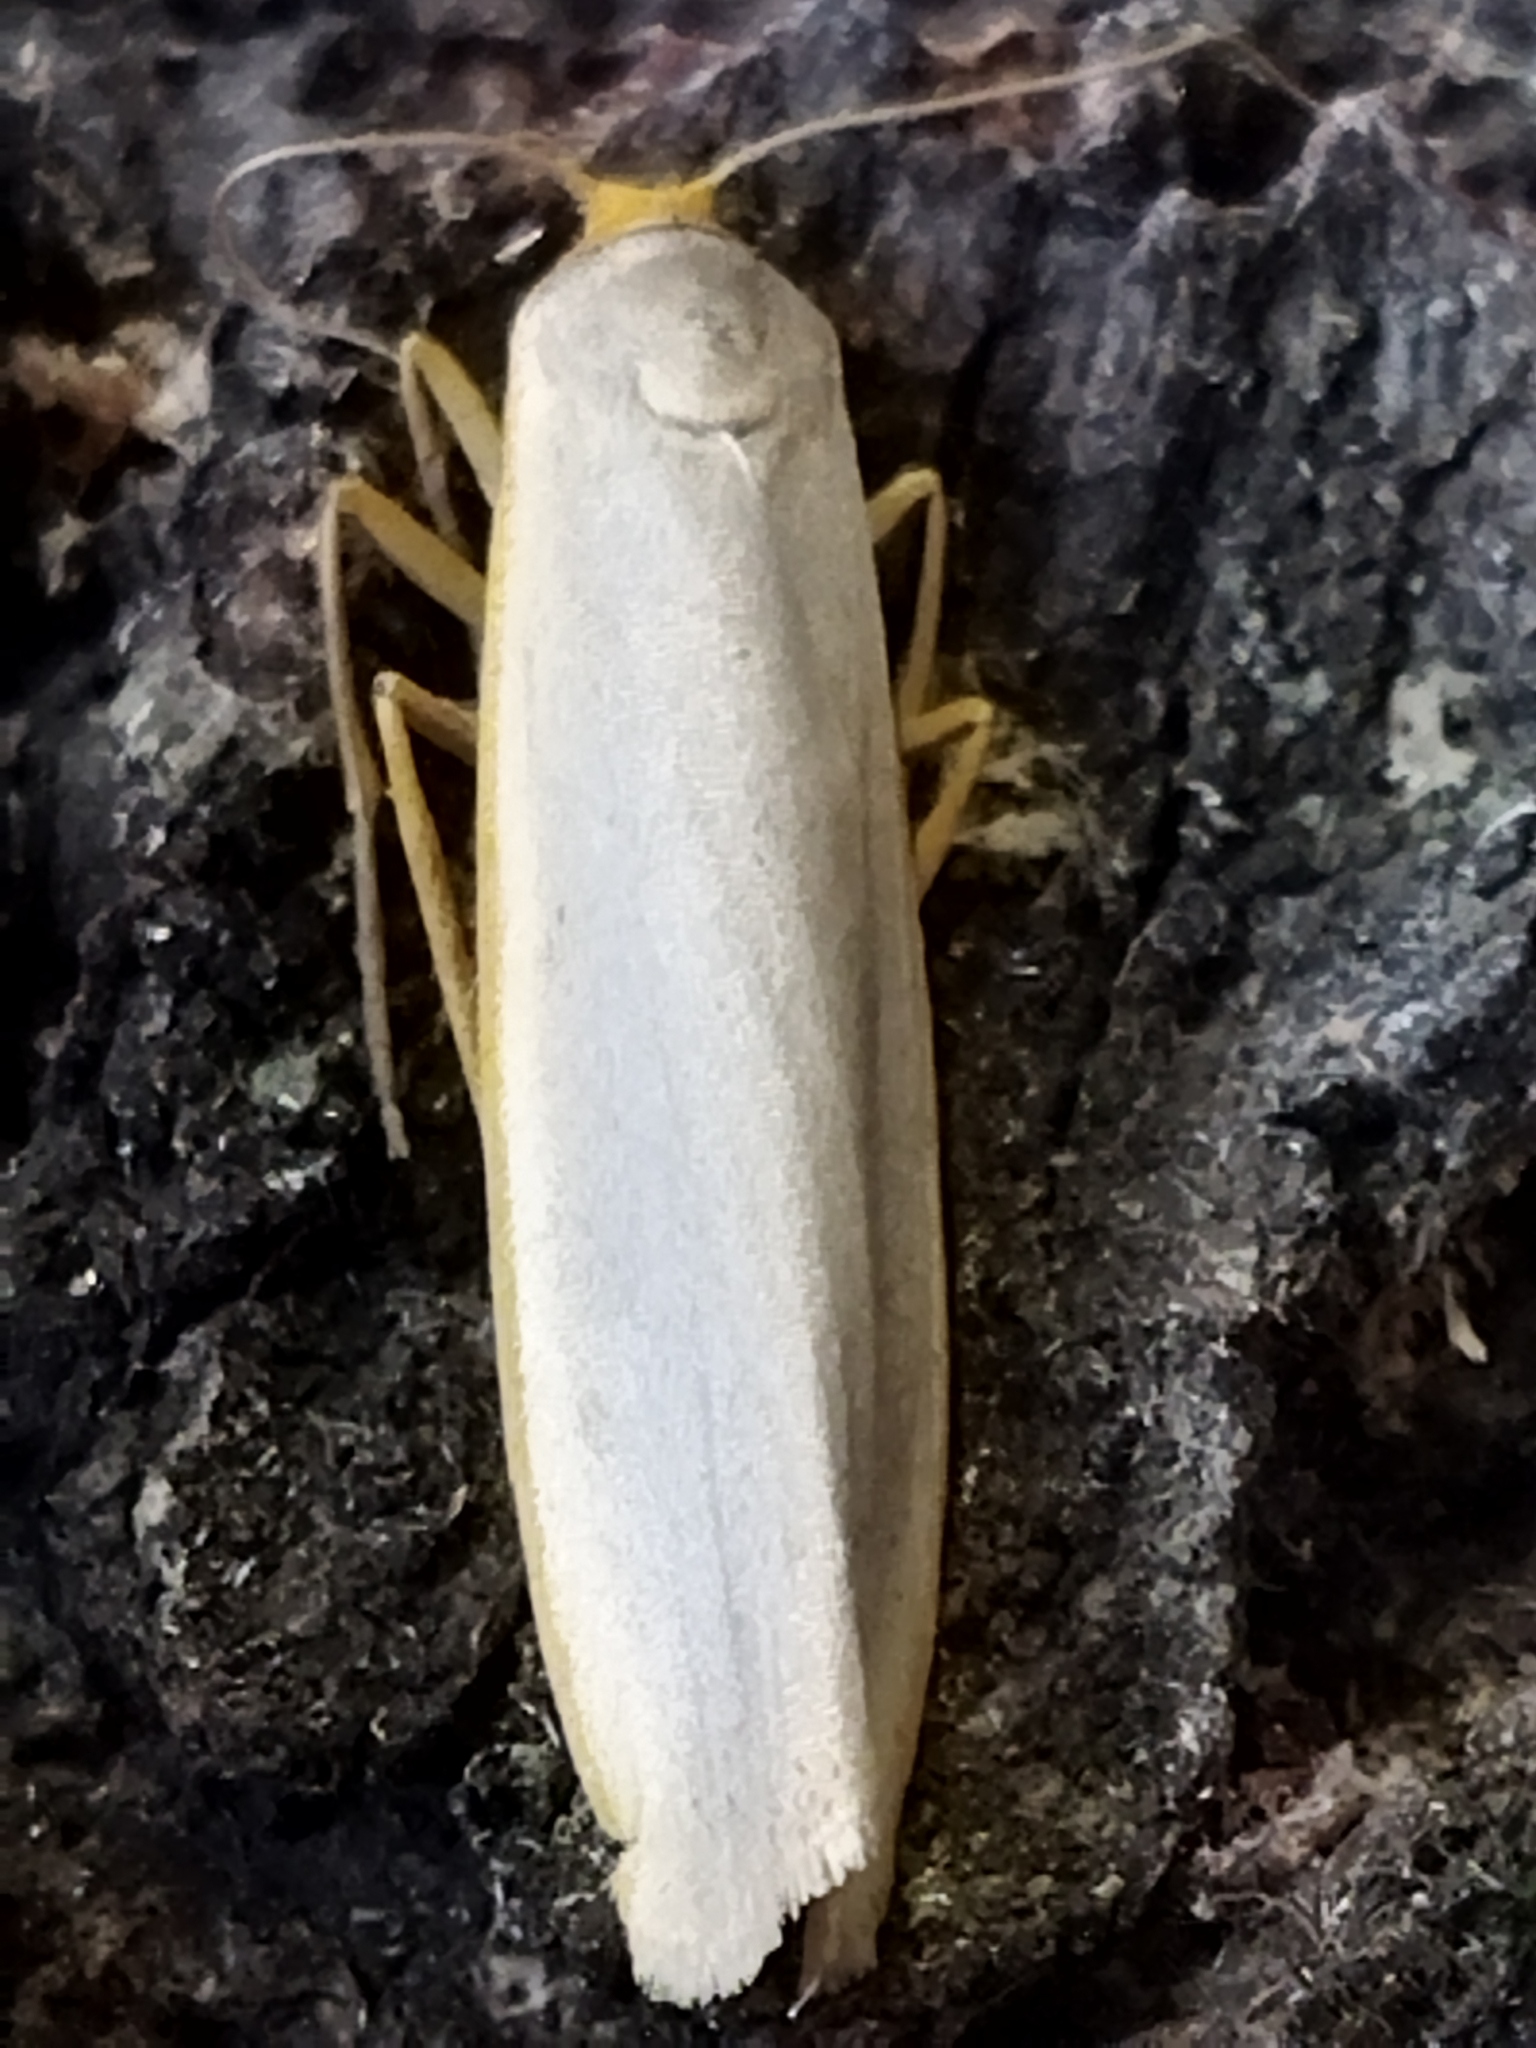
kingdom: Animalia
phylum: Arthropoda
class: Insecta
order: Lepidoptera
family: Erebidae
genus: Eilema
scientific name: Eilema caniola
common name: Hoary footman
